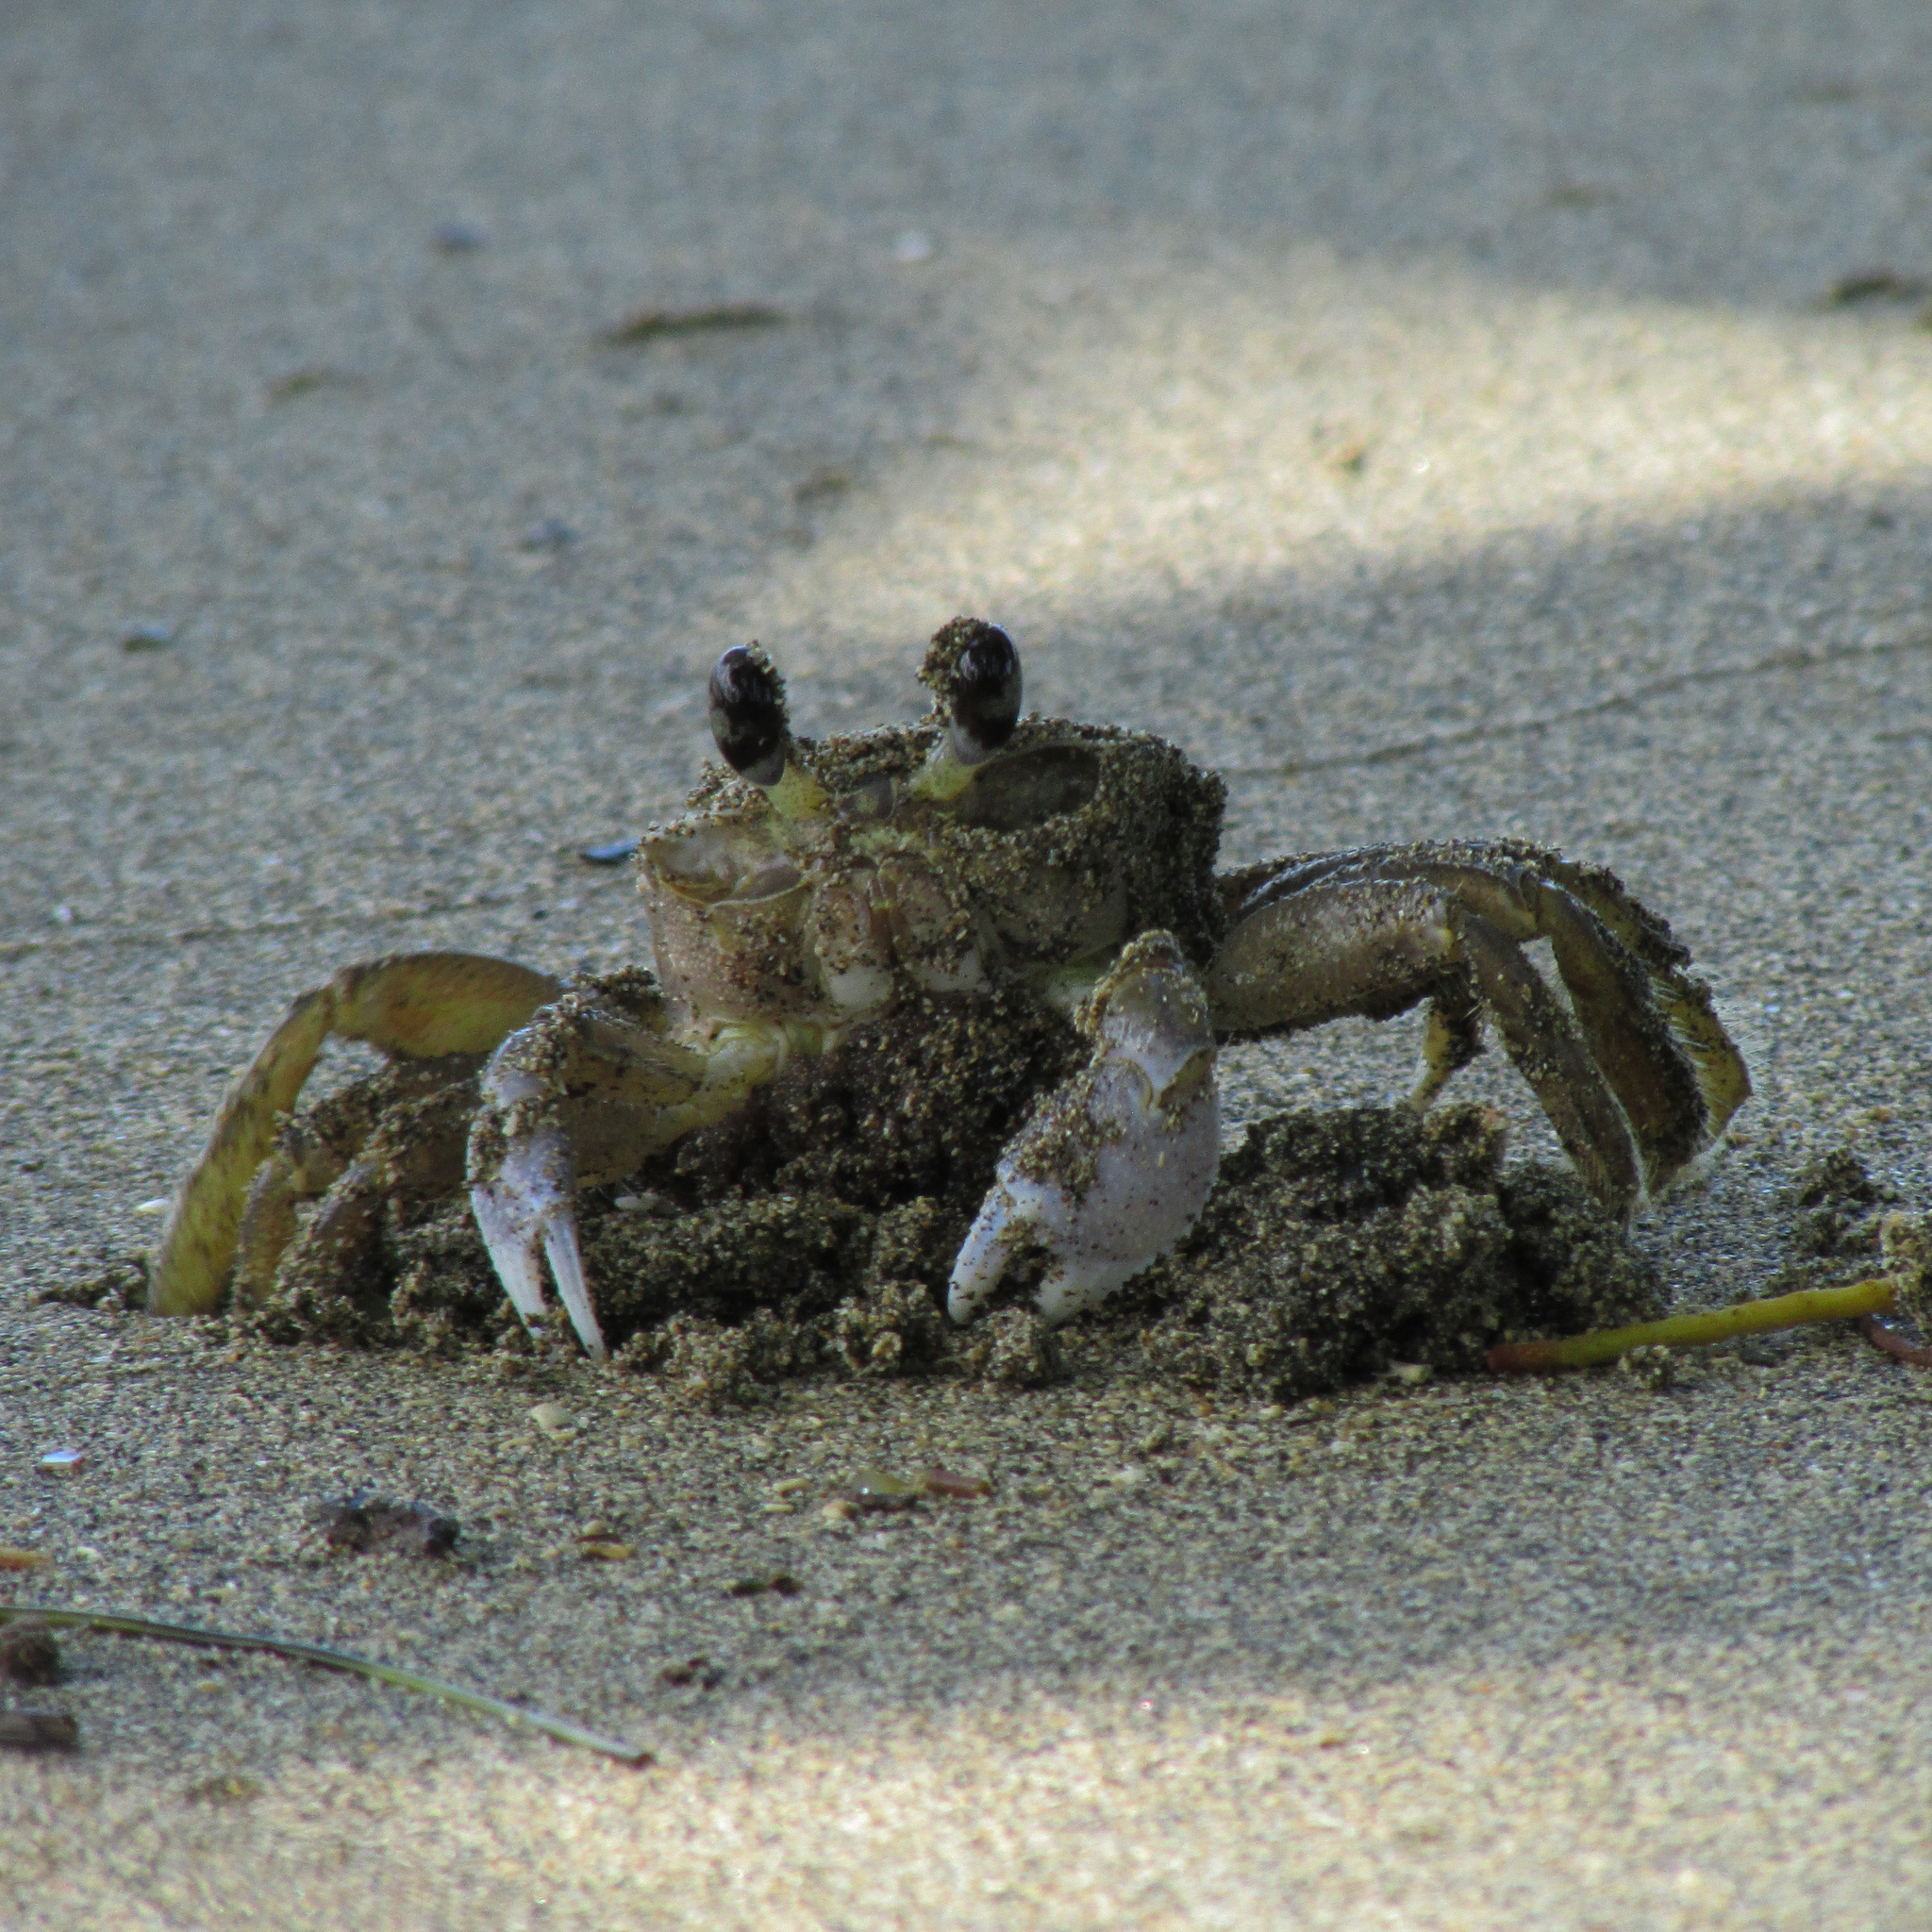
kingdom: Animalia
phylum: Arthropoda
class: Malacostraca
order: Decapoda
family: Ocypodidae
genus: Ocypode
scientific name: Ocypode quadrata
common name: Ghost crab
